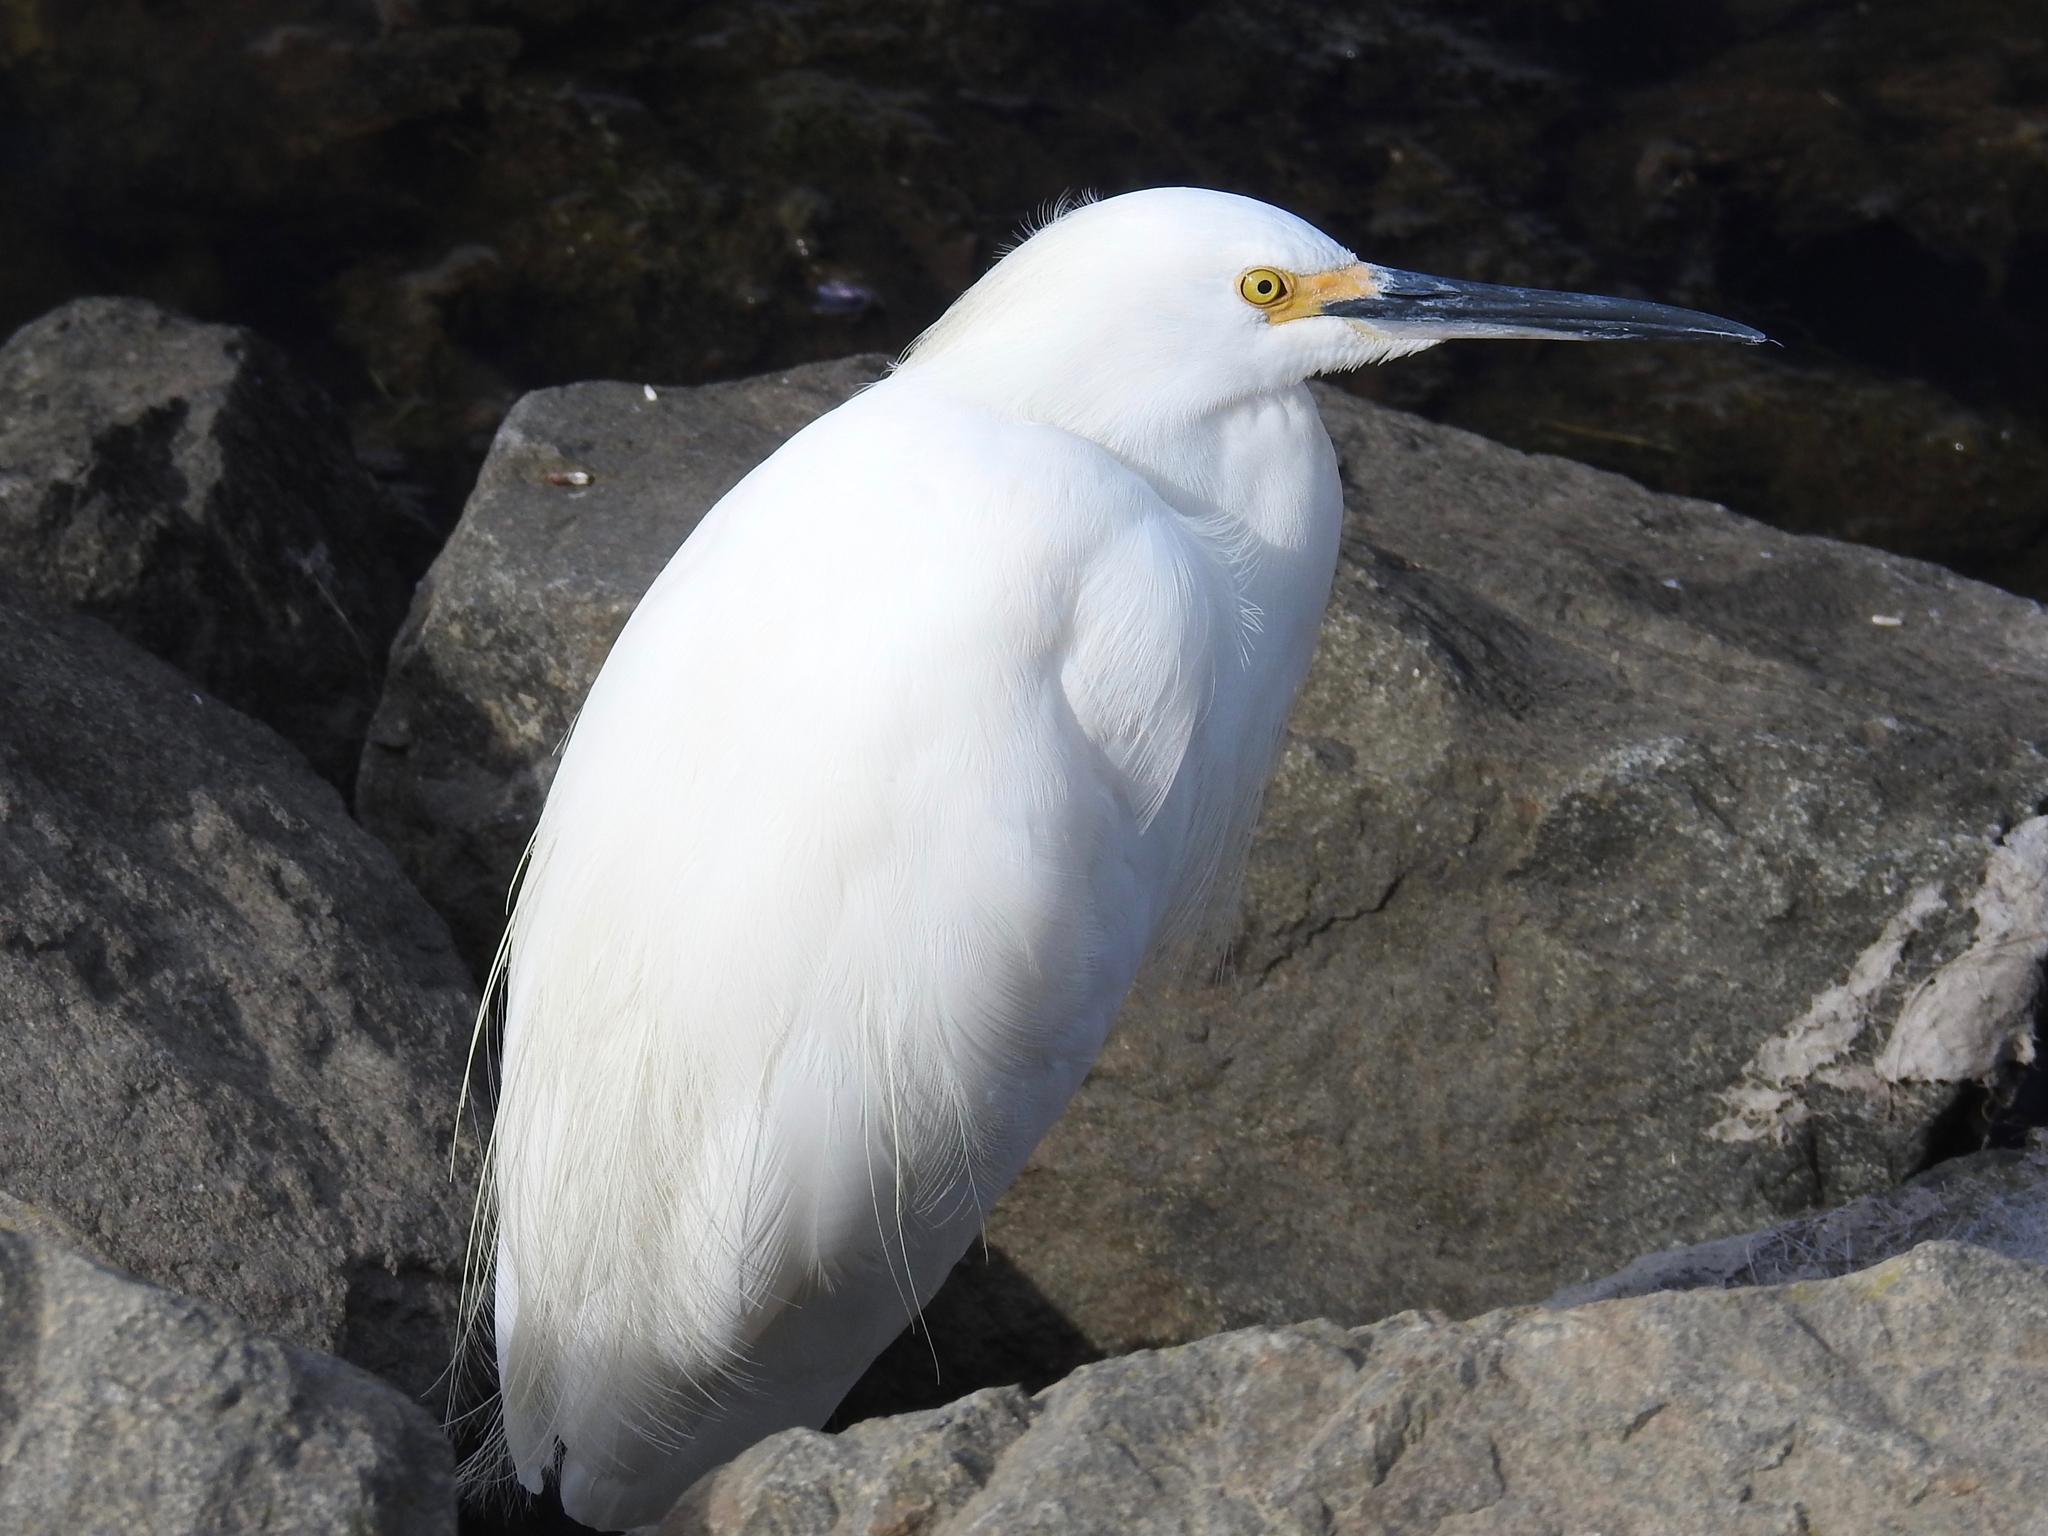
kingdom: Animalia
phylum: Chordata
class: Aves
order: Pelecaniformes
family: Ardeidae
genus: Egretta
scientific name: Egretta thula
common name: Snowy egret
